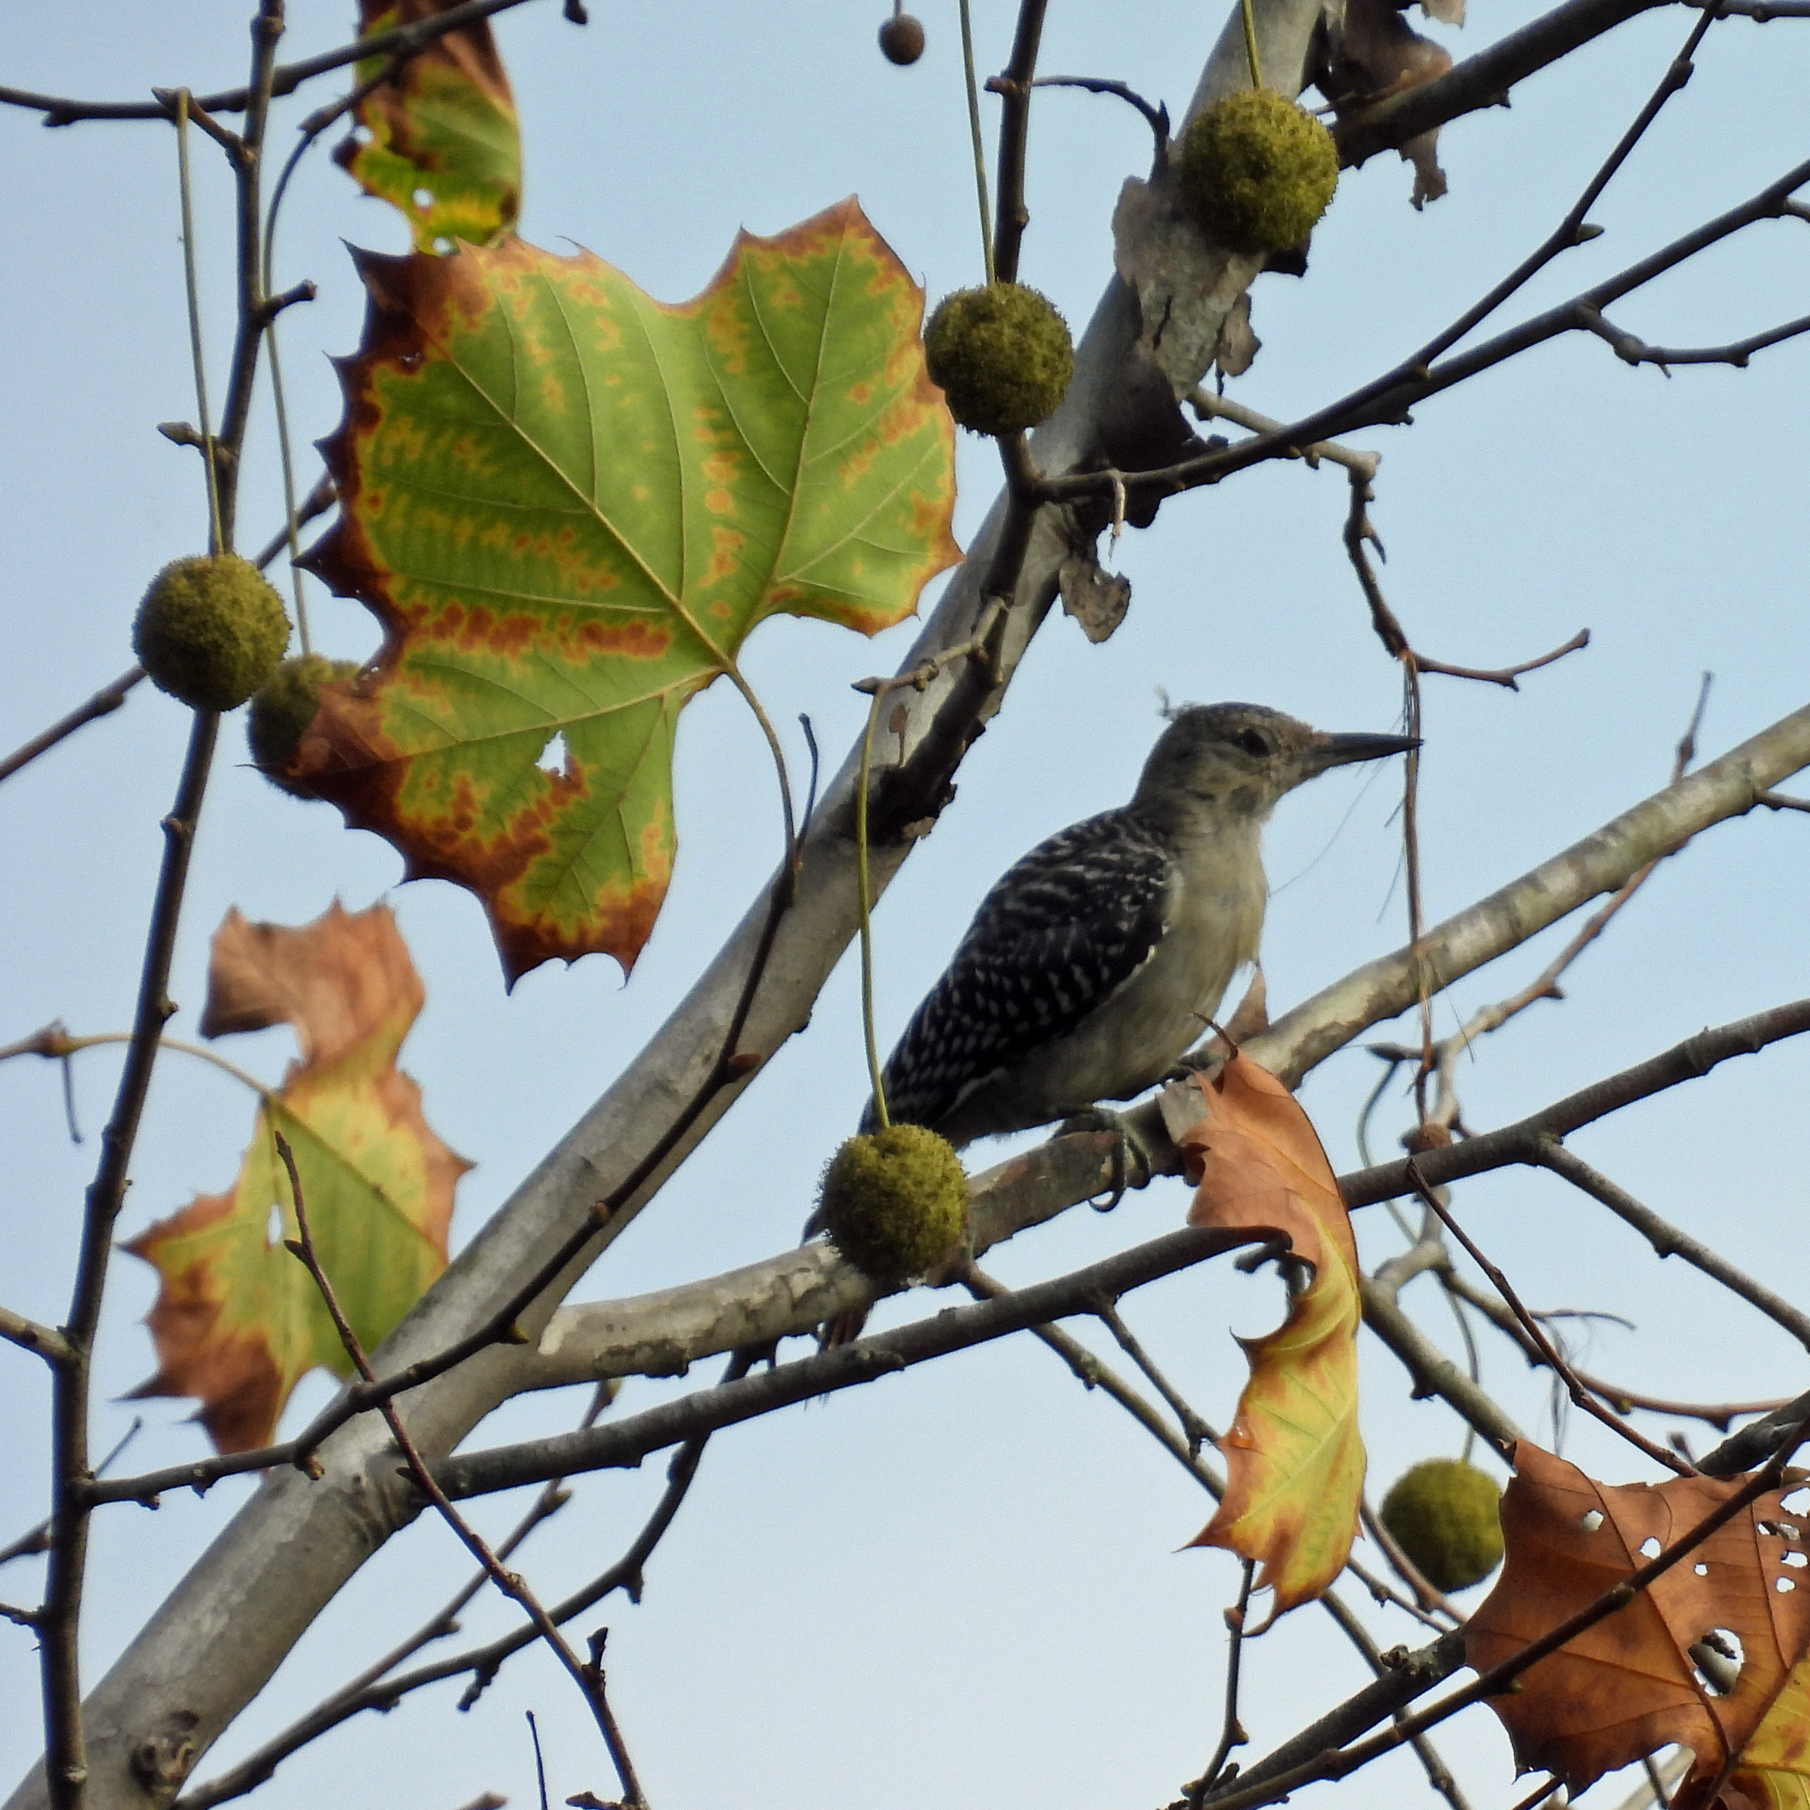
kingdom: Animalia
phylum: Chordata
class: Aves
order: Piciformes
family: Picidae
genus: Melanerpes
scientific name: Melanerpes carolinus
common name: Red-bellied woodpecker
